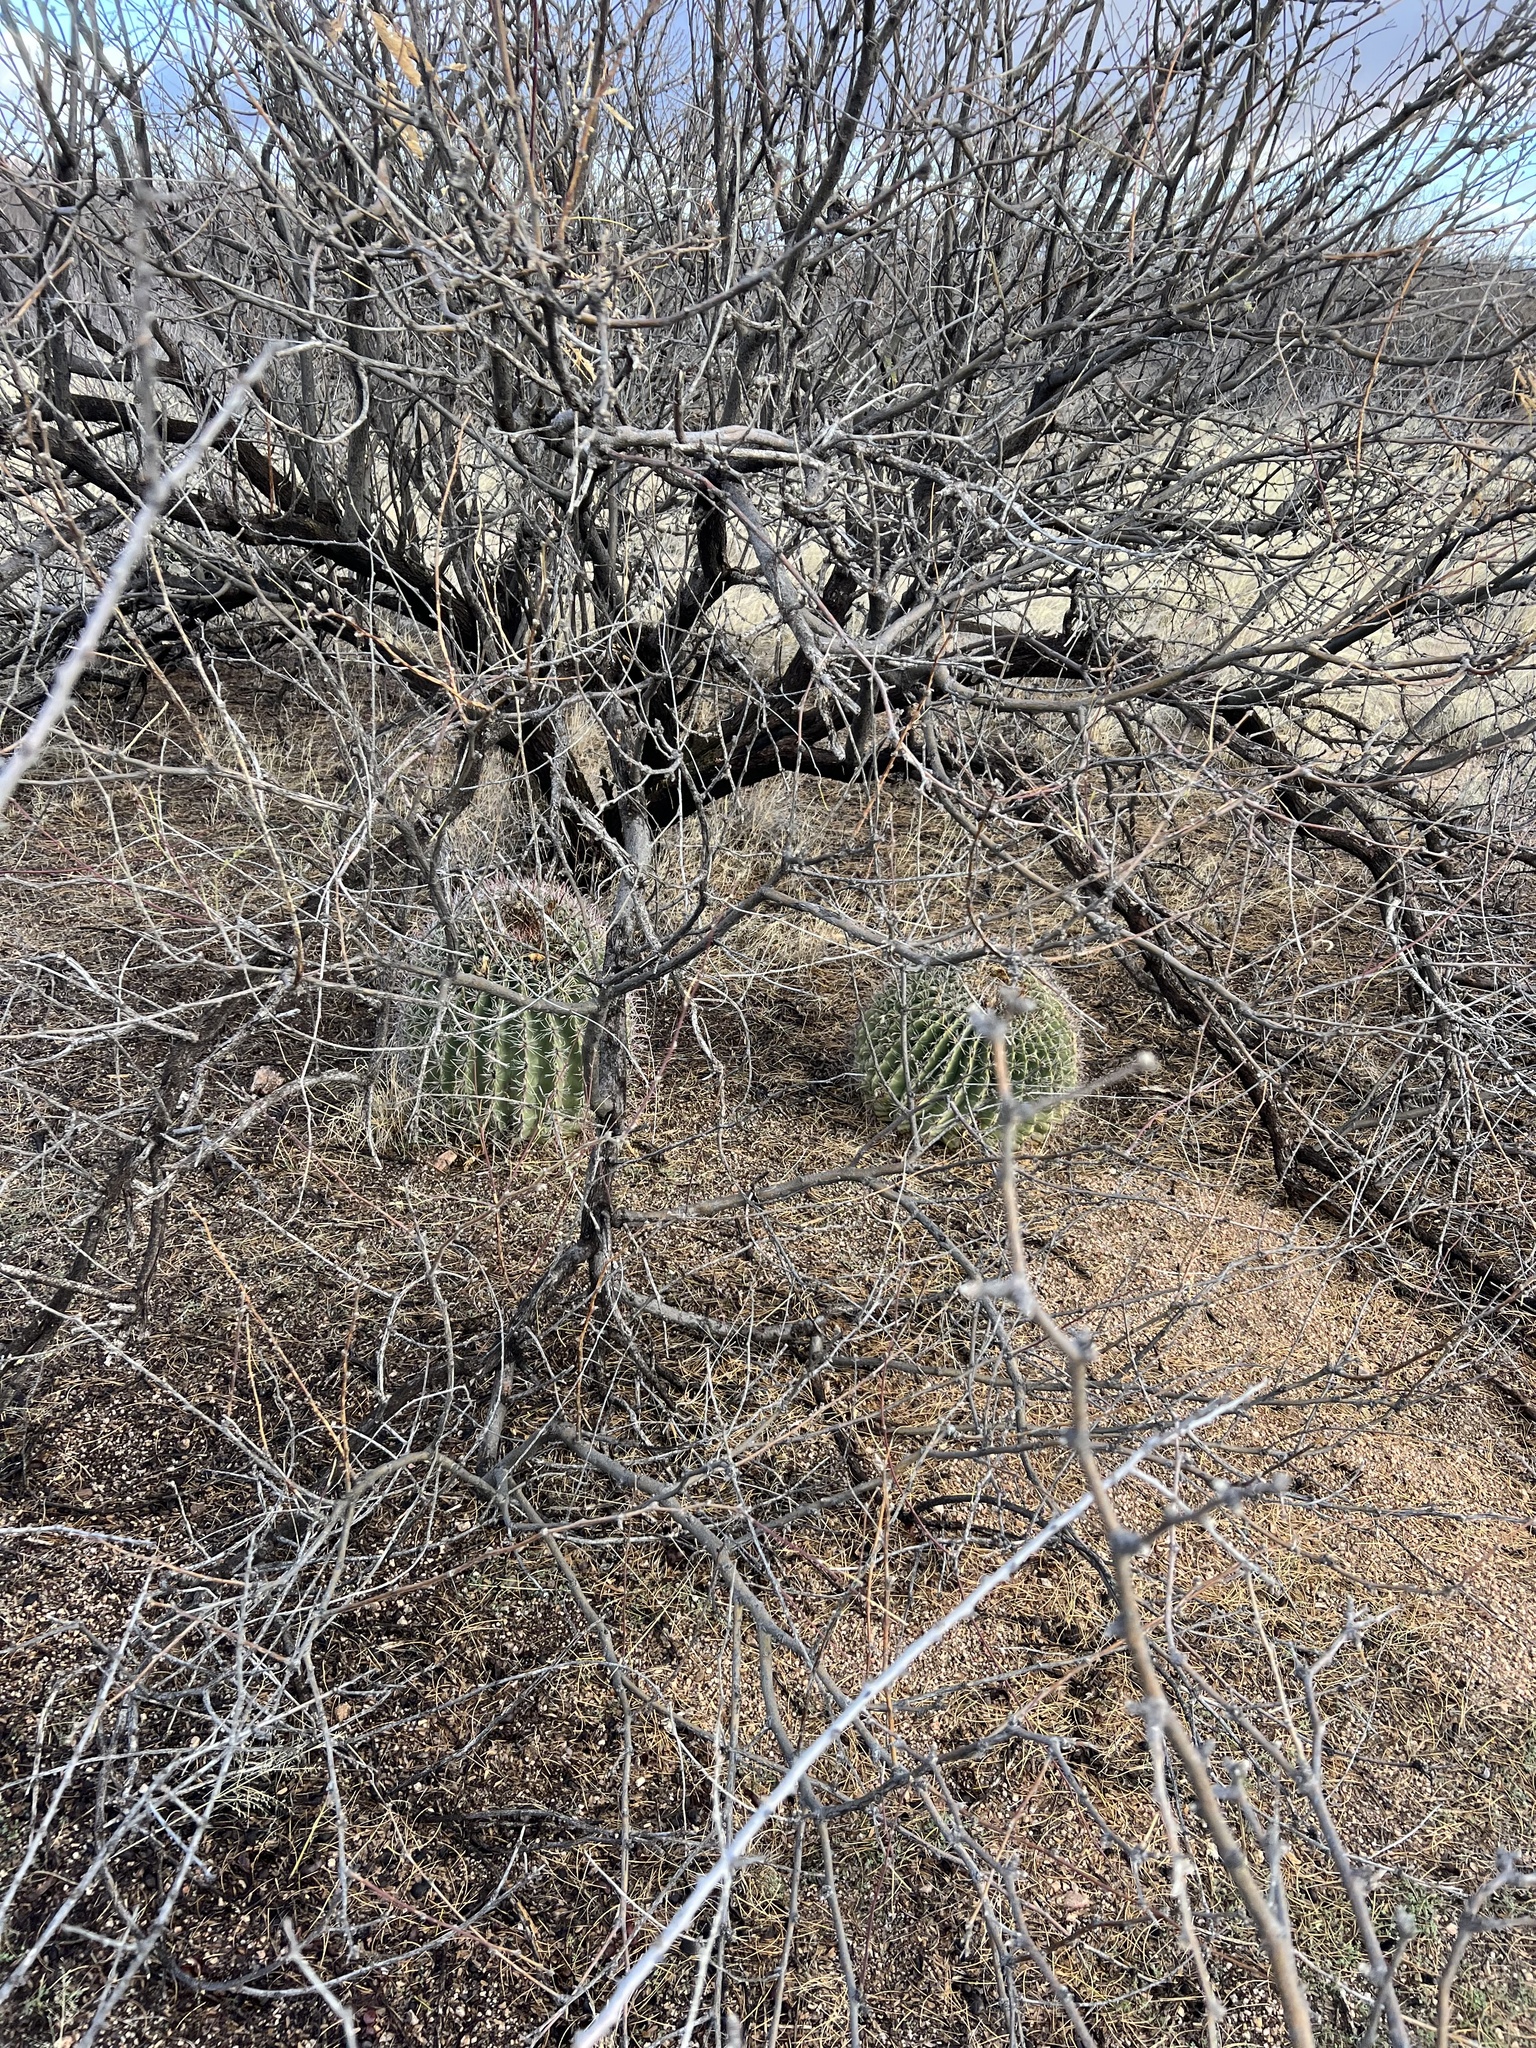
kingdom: Plantae
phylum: Tracheophyta
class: Magnoliopsida
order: Caryophyllales
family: Cactaceae
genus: Ferocactus
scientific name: Ferocactus wislizeni
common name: Candy barrel cactus
